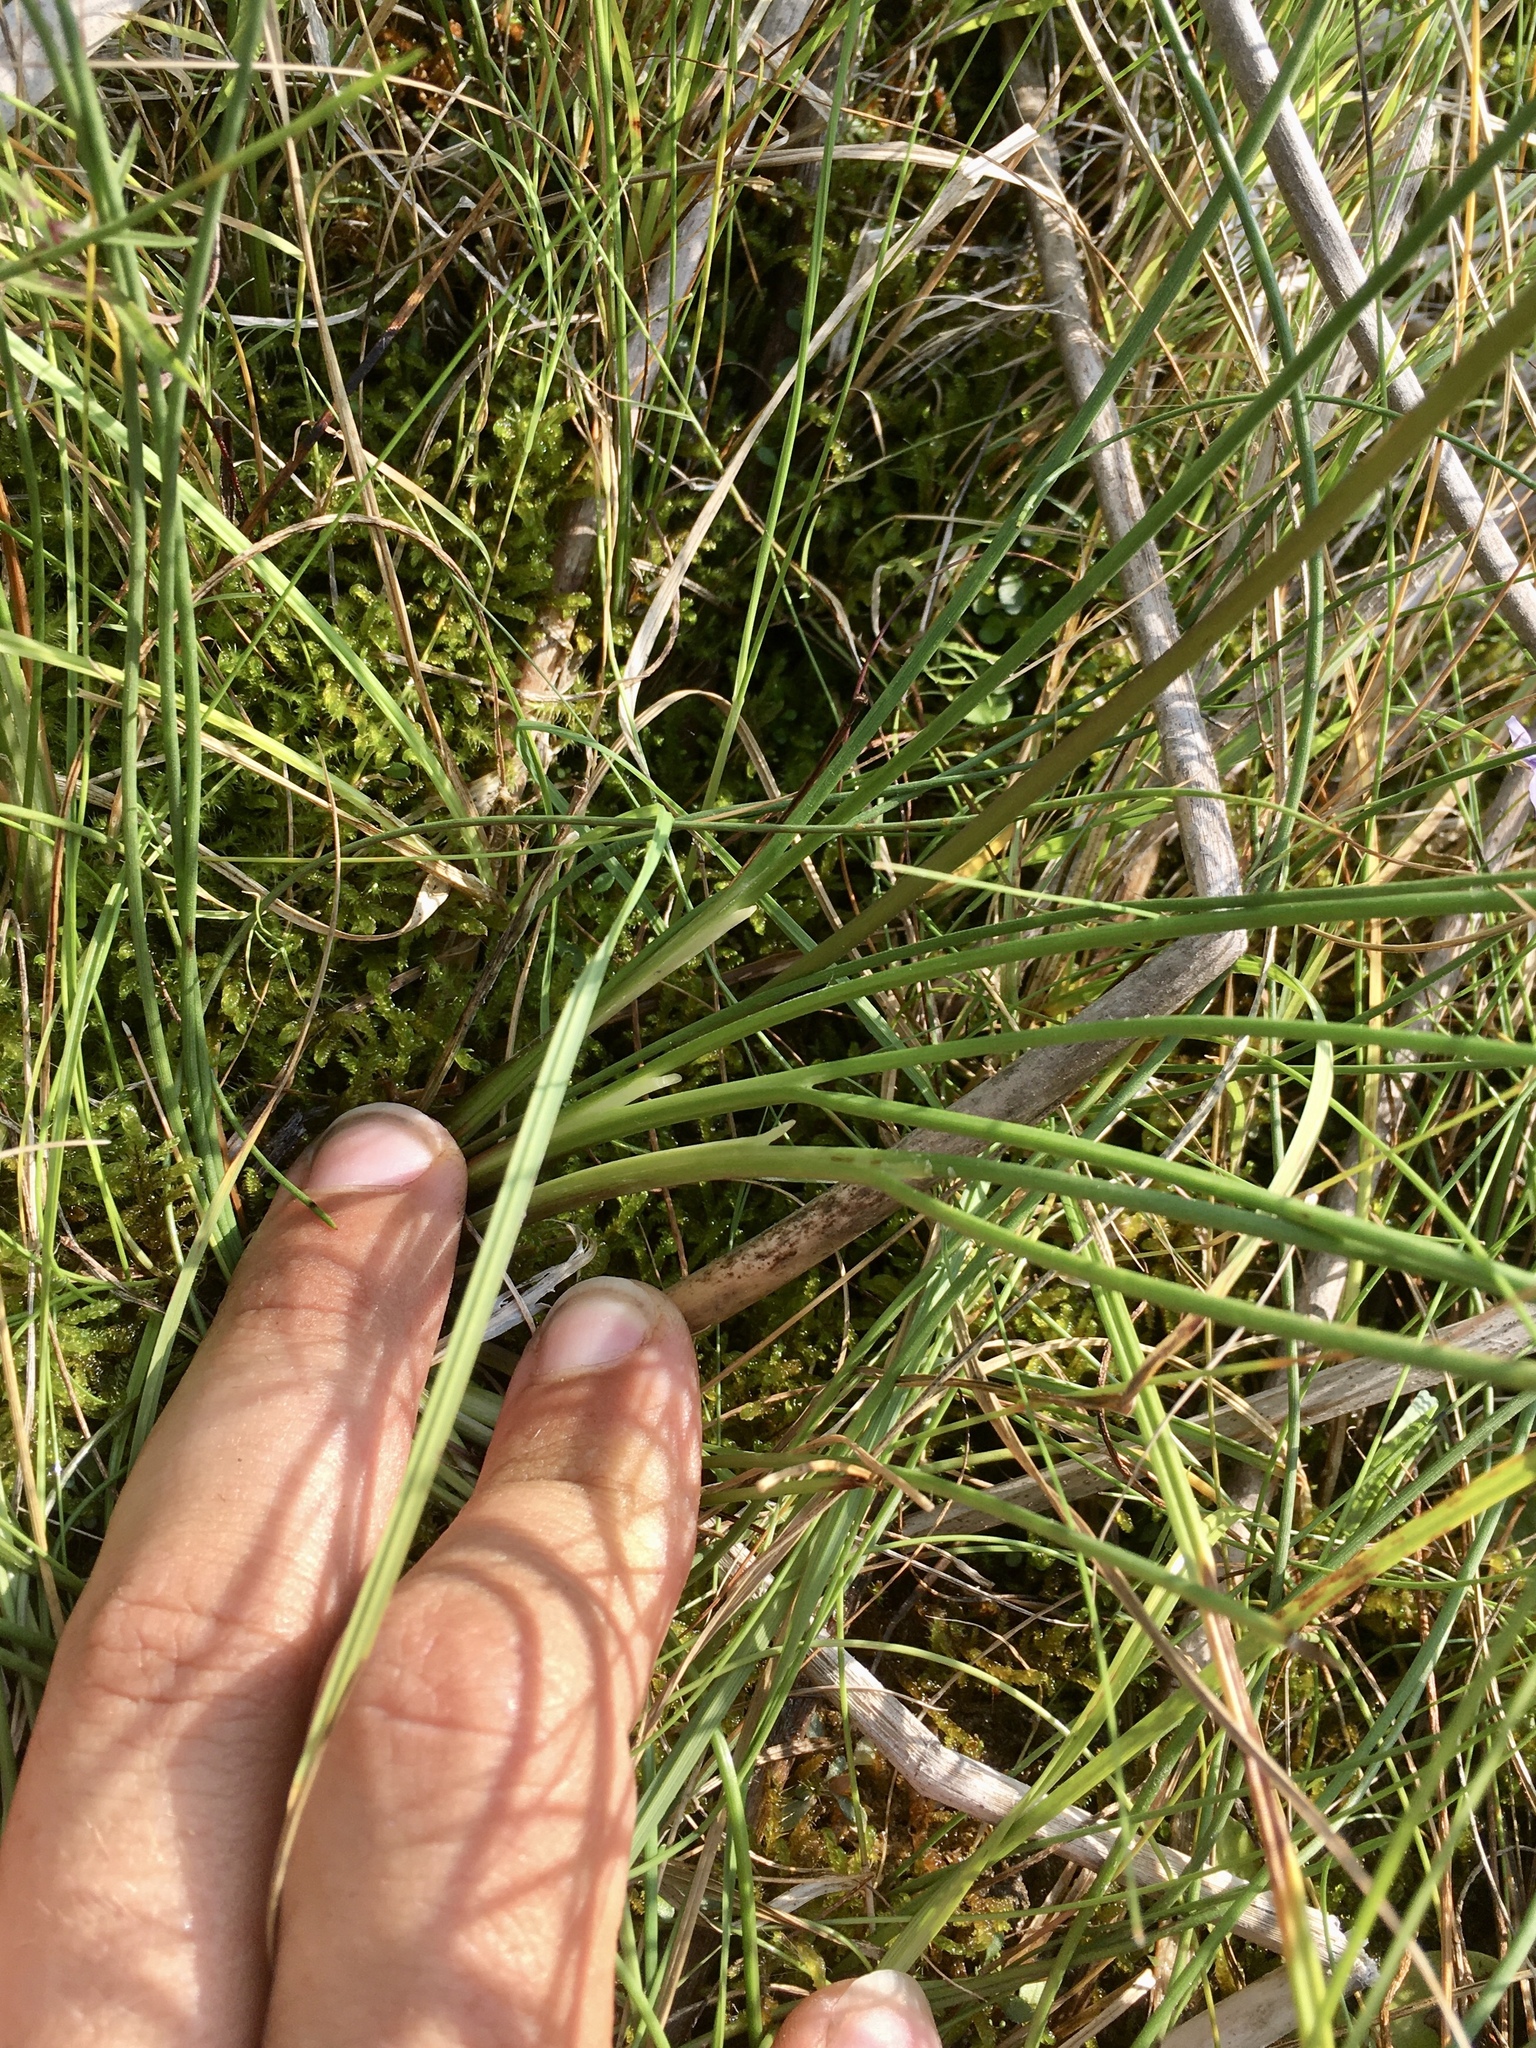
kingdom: Plantae
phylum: Tracheophyta
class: Liliopsida
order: Alismatales
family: Juncaginaceae
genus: Triglochin
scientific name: Triglochin maritima
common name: Sea arrowgrass
